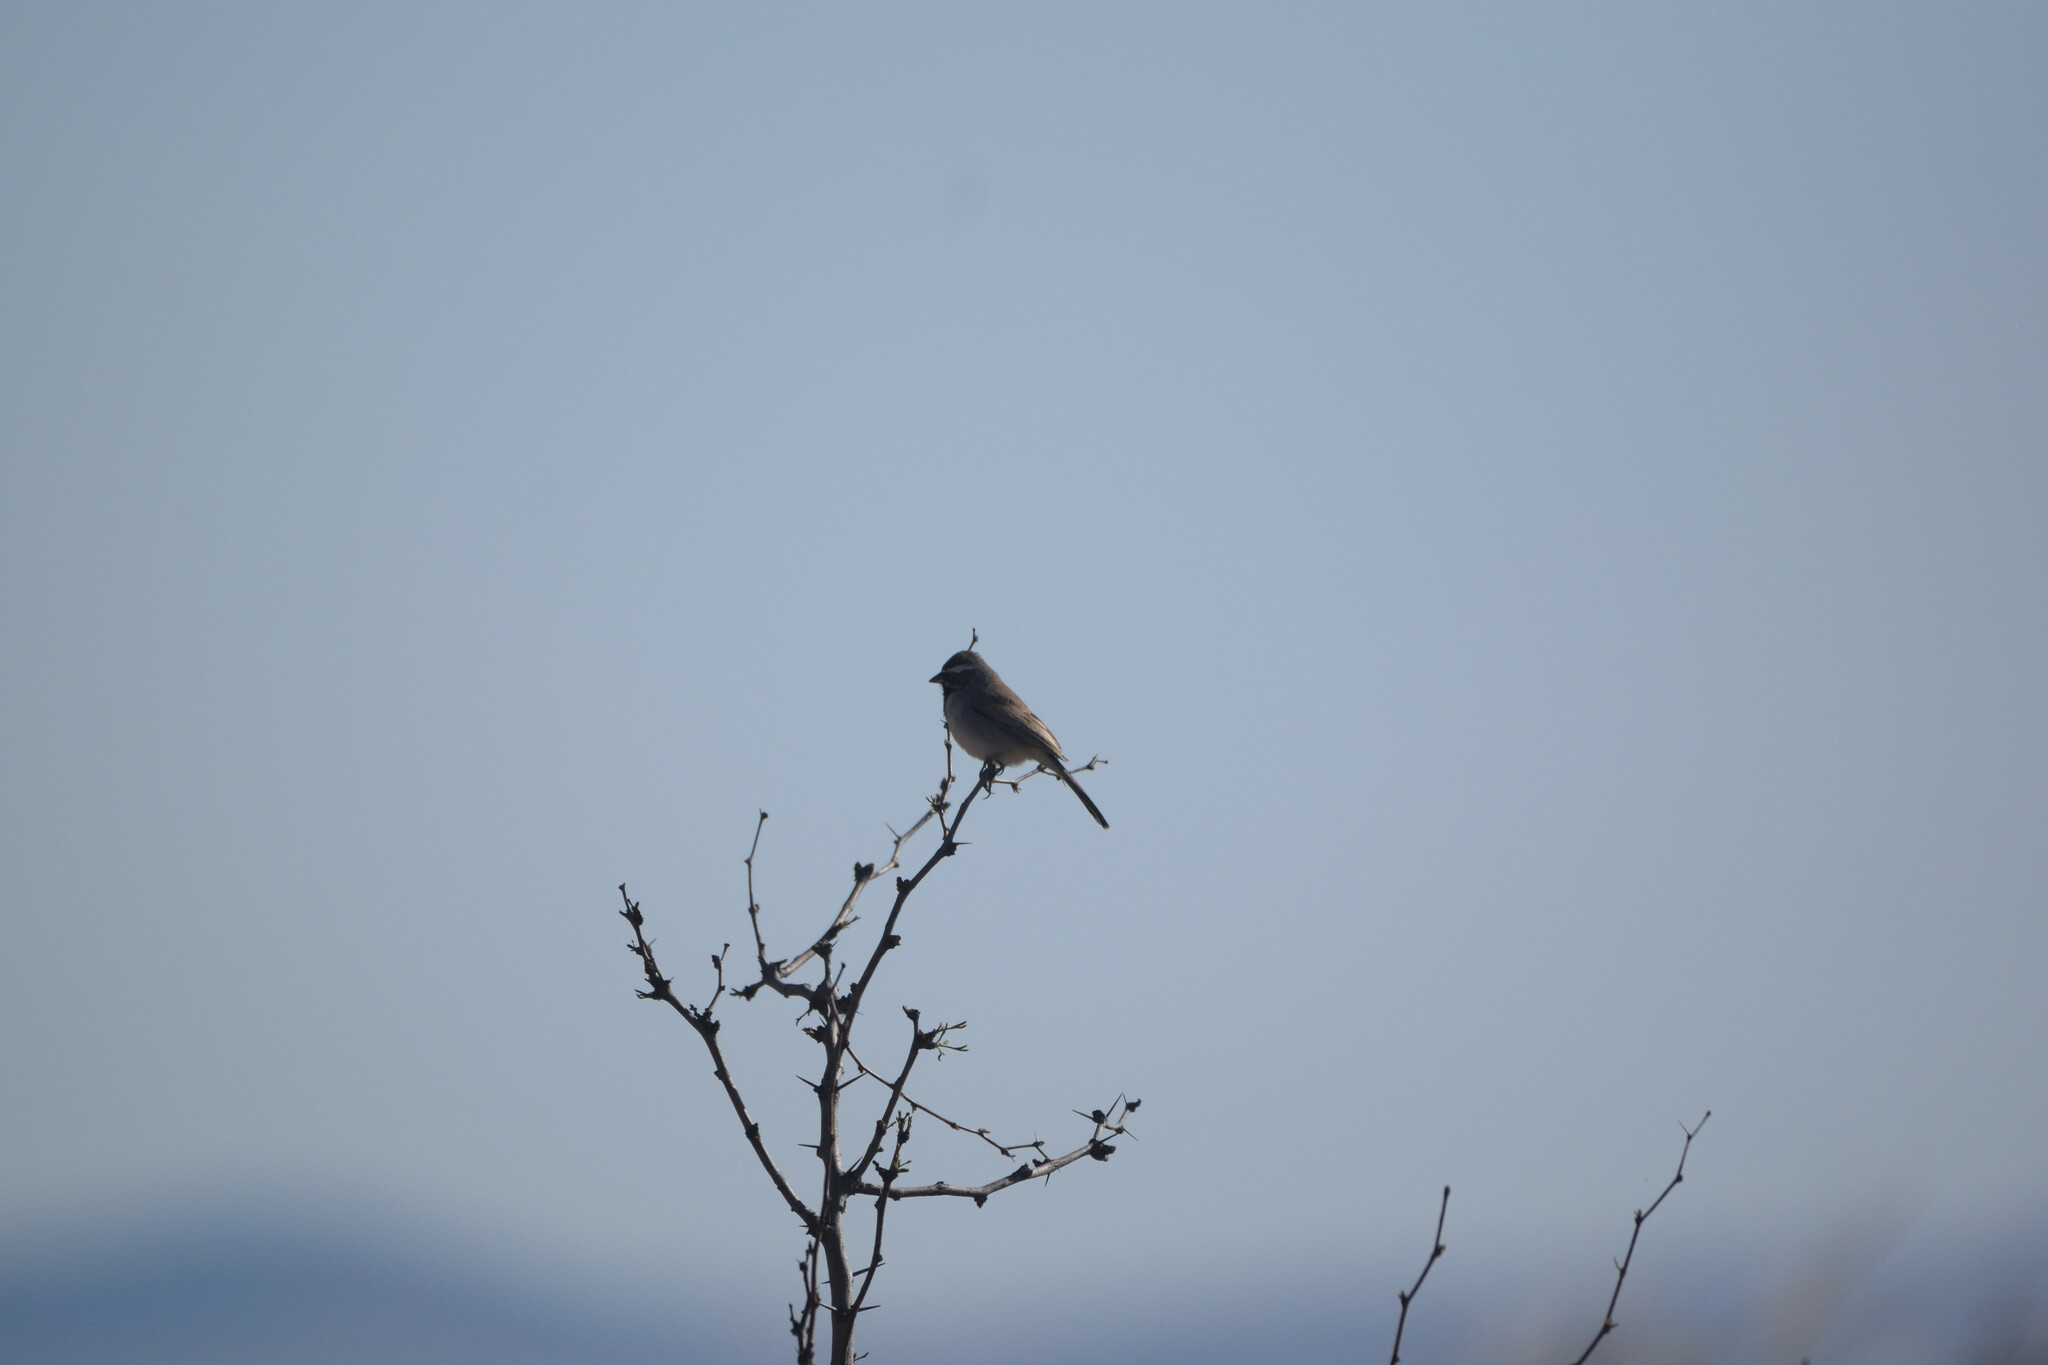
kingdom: Animalia
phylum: Chordata
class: Aves
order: Passeriformes
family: Passerellidae
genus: Amphispiza
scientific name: Amphispiza bilineata
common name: Black-throated sparrow
